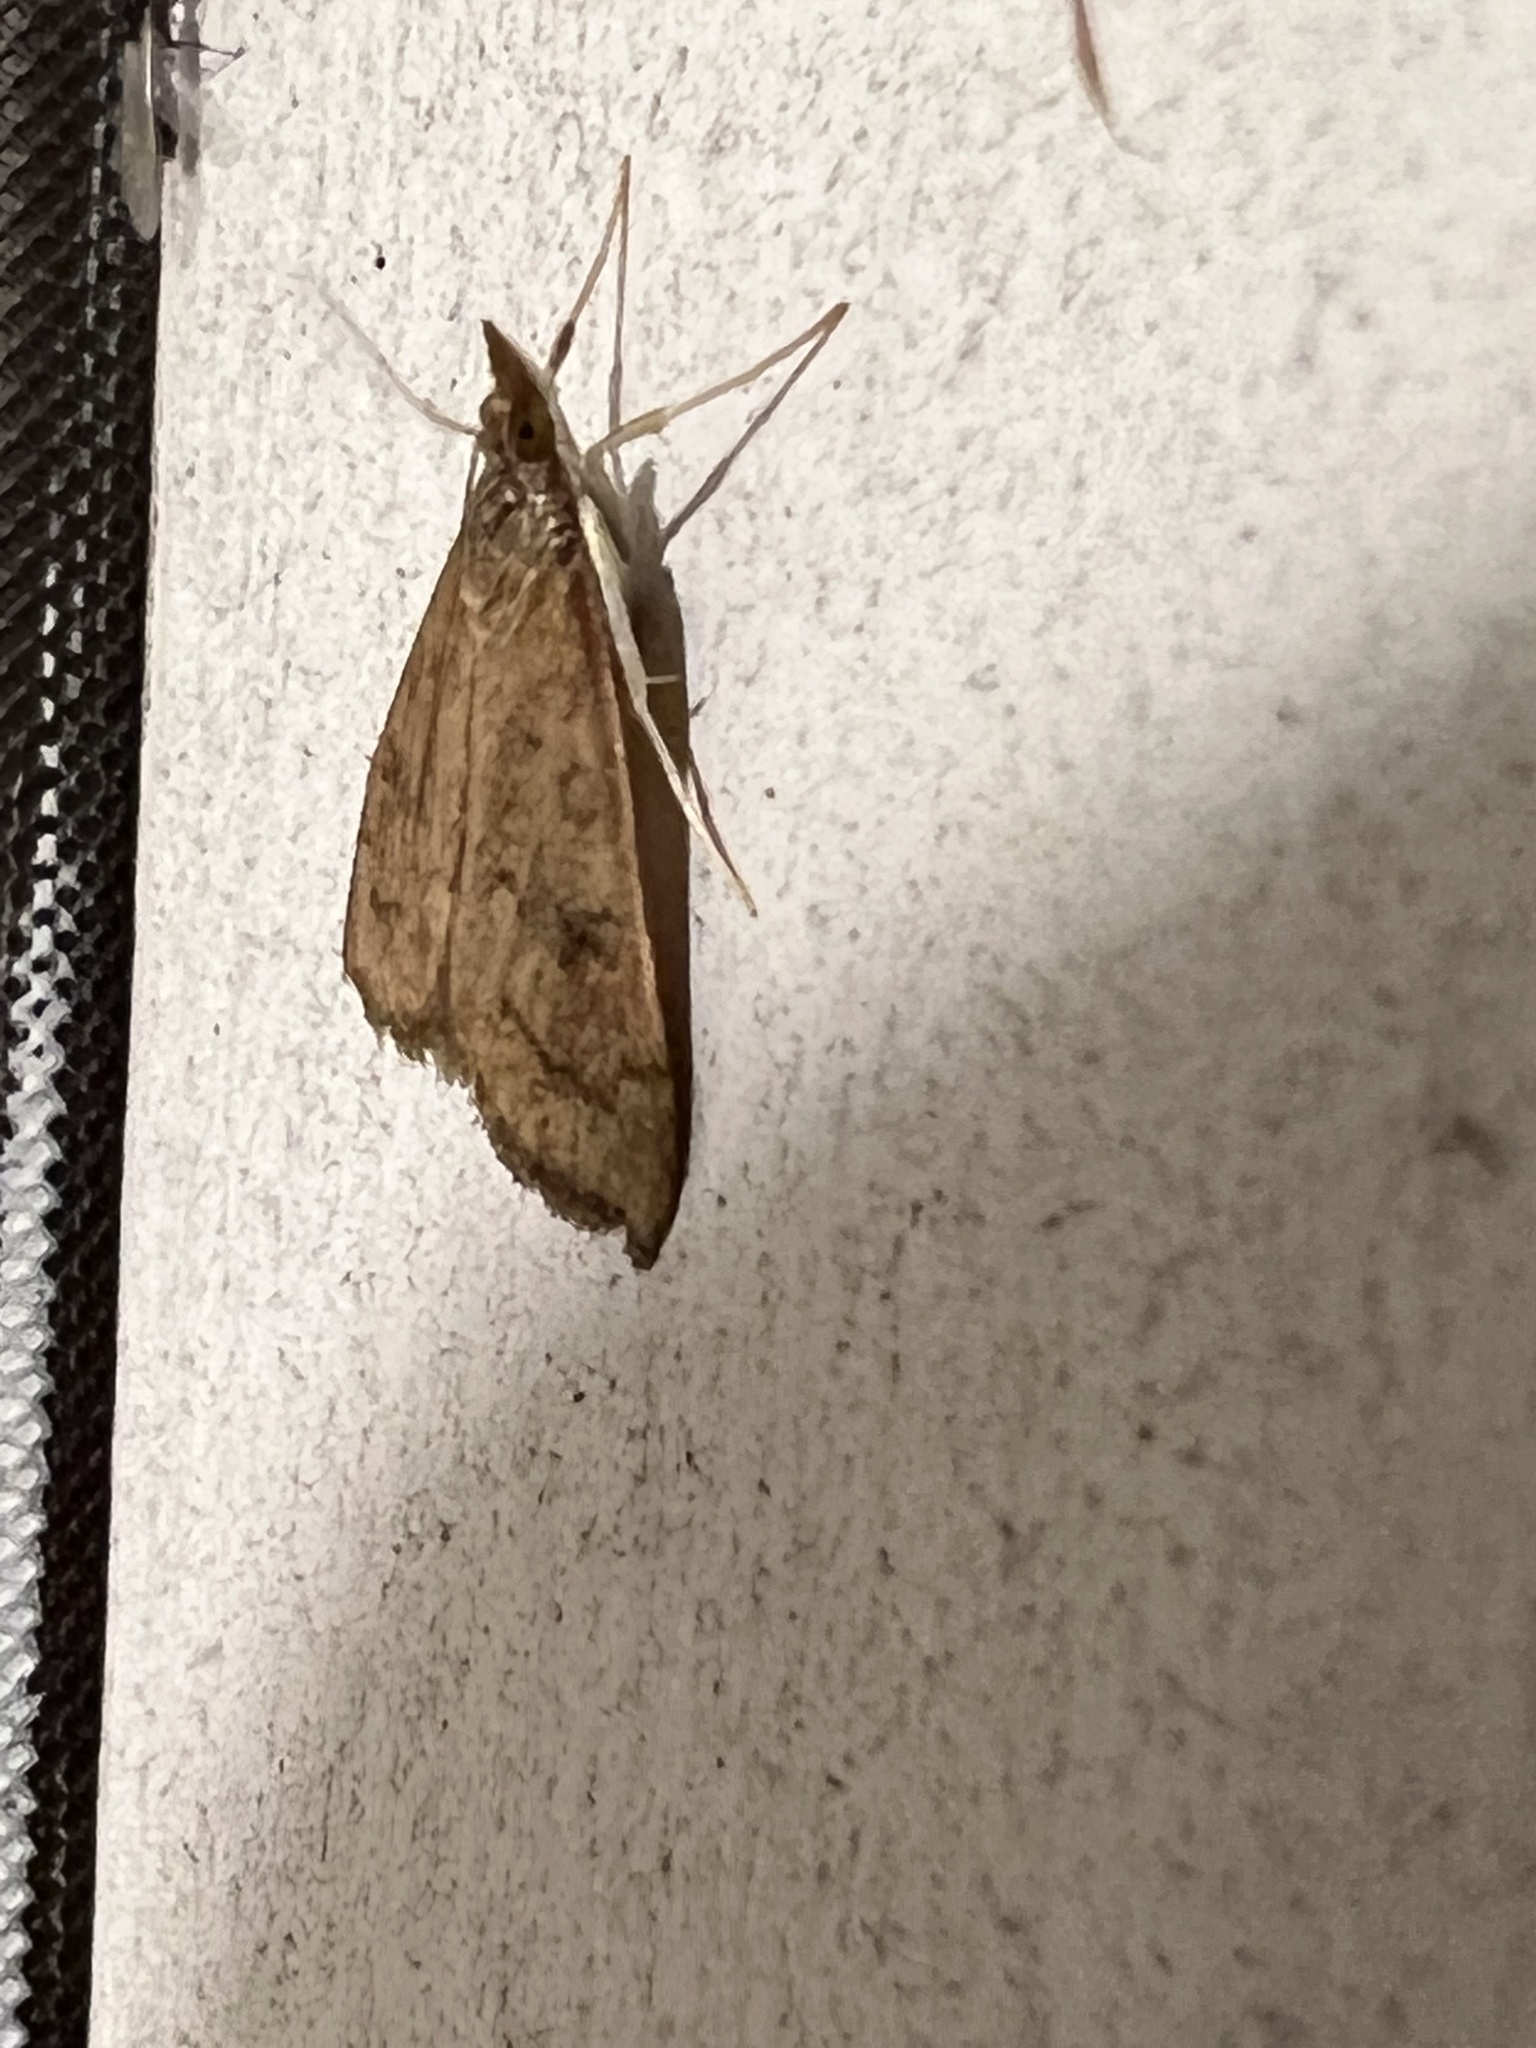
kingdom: Animalia
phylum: Arthropoda
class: Insecta
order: Lepidoptera
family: Crambidae
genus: Udea
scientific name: Udea rubigalis
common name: Celery leaftier moth
